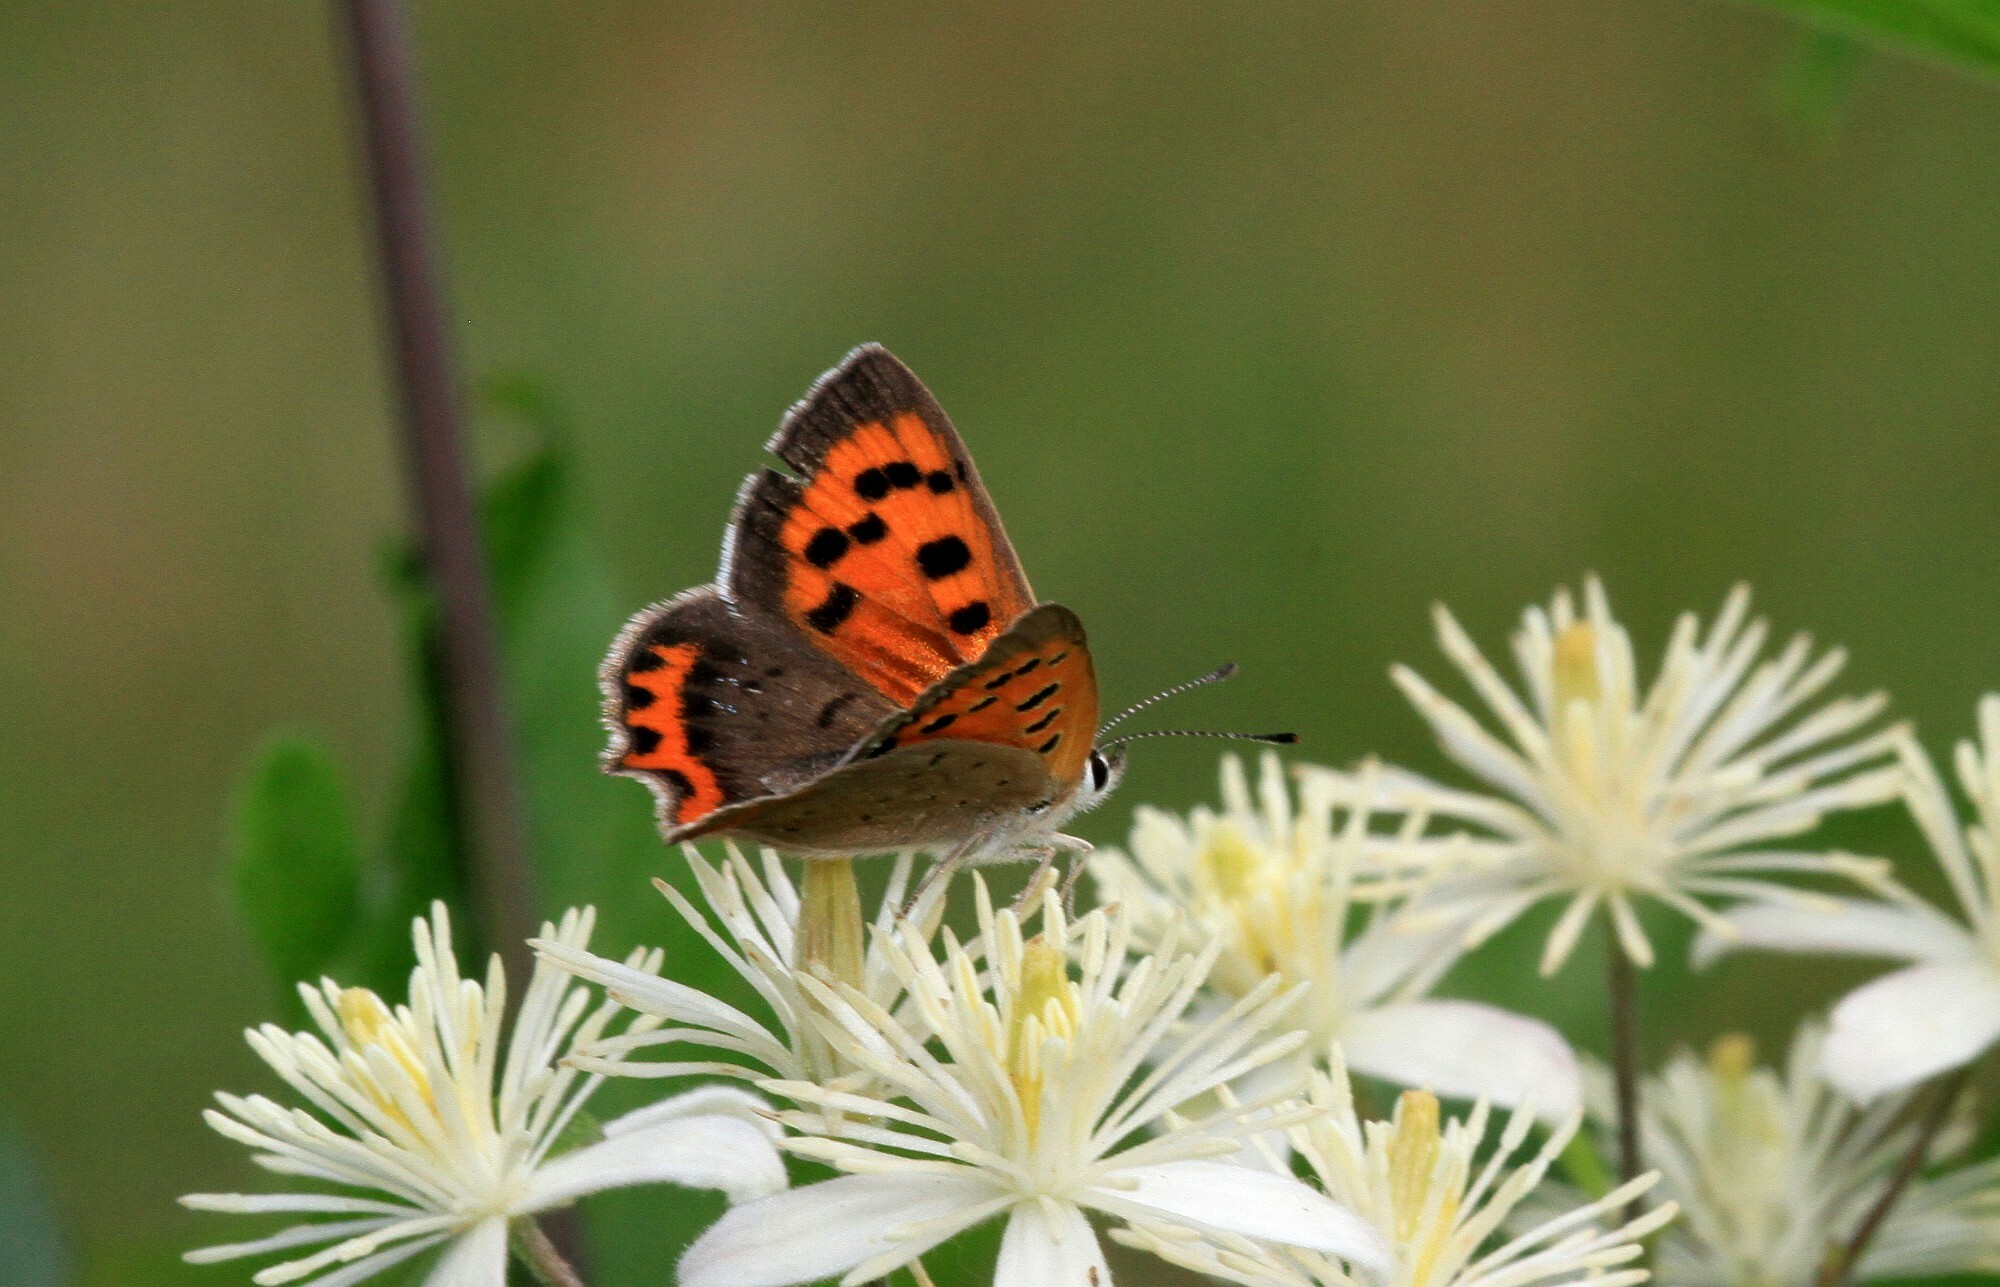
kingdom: Animalia
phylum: Arthropoda
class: Insecta
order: Lepidoptera
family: Lycaenidae
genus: Lycaena
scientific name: Lycaena phlaeas
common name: Small copper
